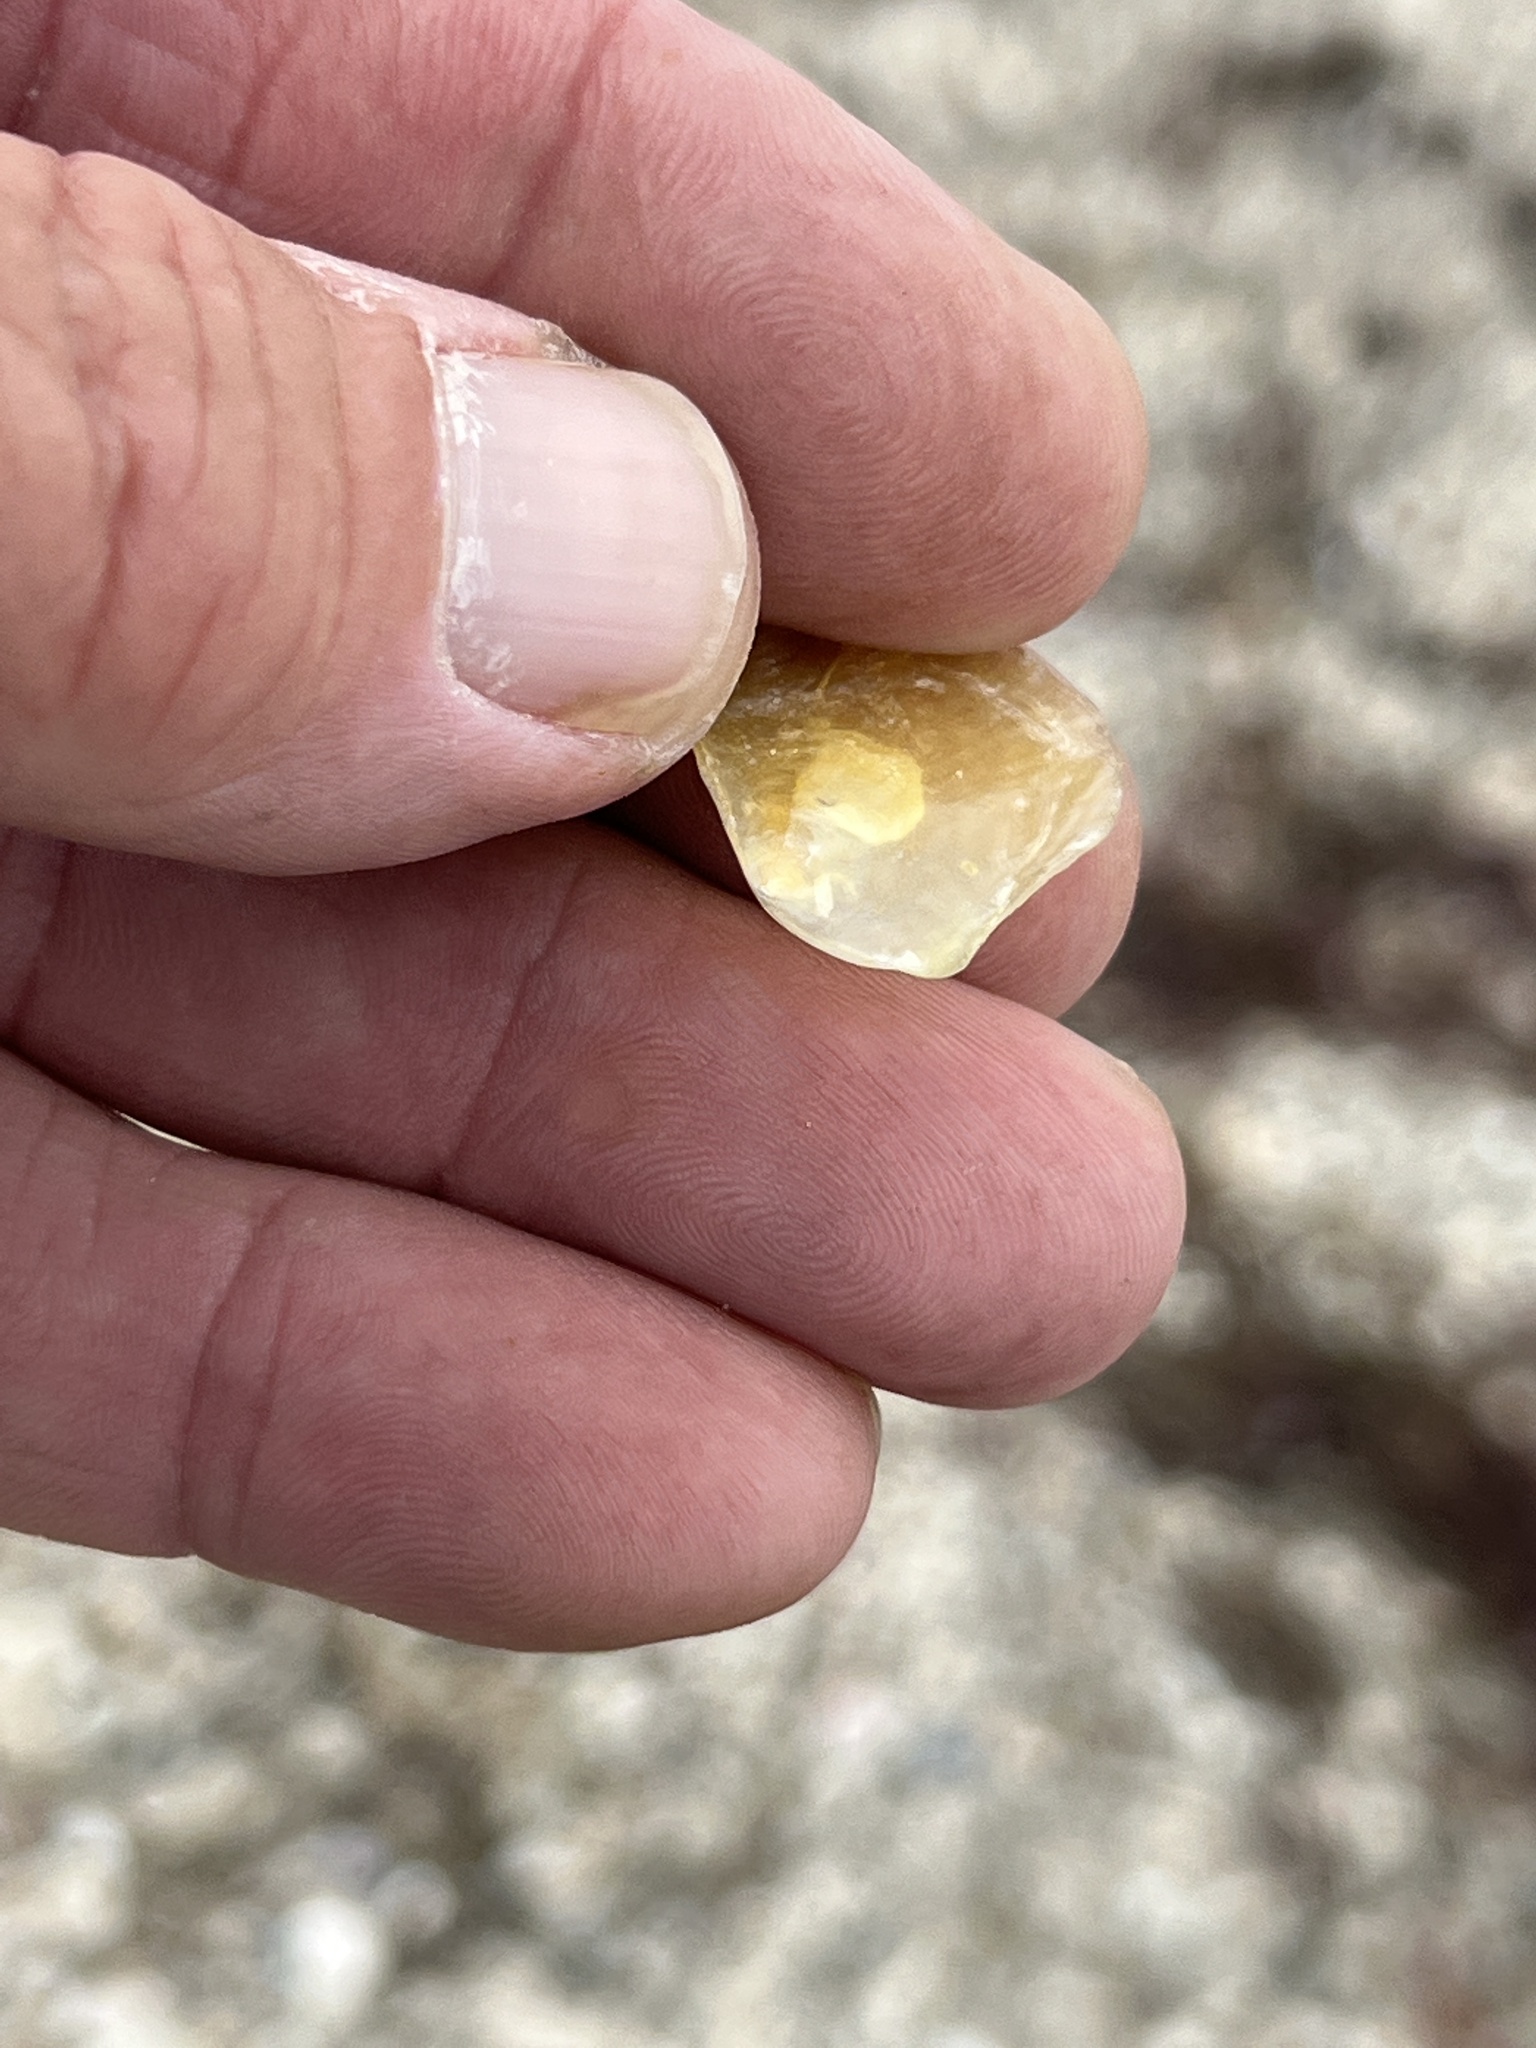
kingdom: Animalia
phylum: Mollusca
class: Bivalvia
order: Pectinida
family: Anomiidae
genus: Anomia
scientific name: Anomia simplex
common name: Common jingle shell
